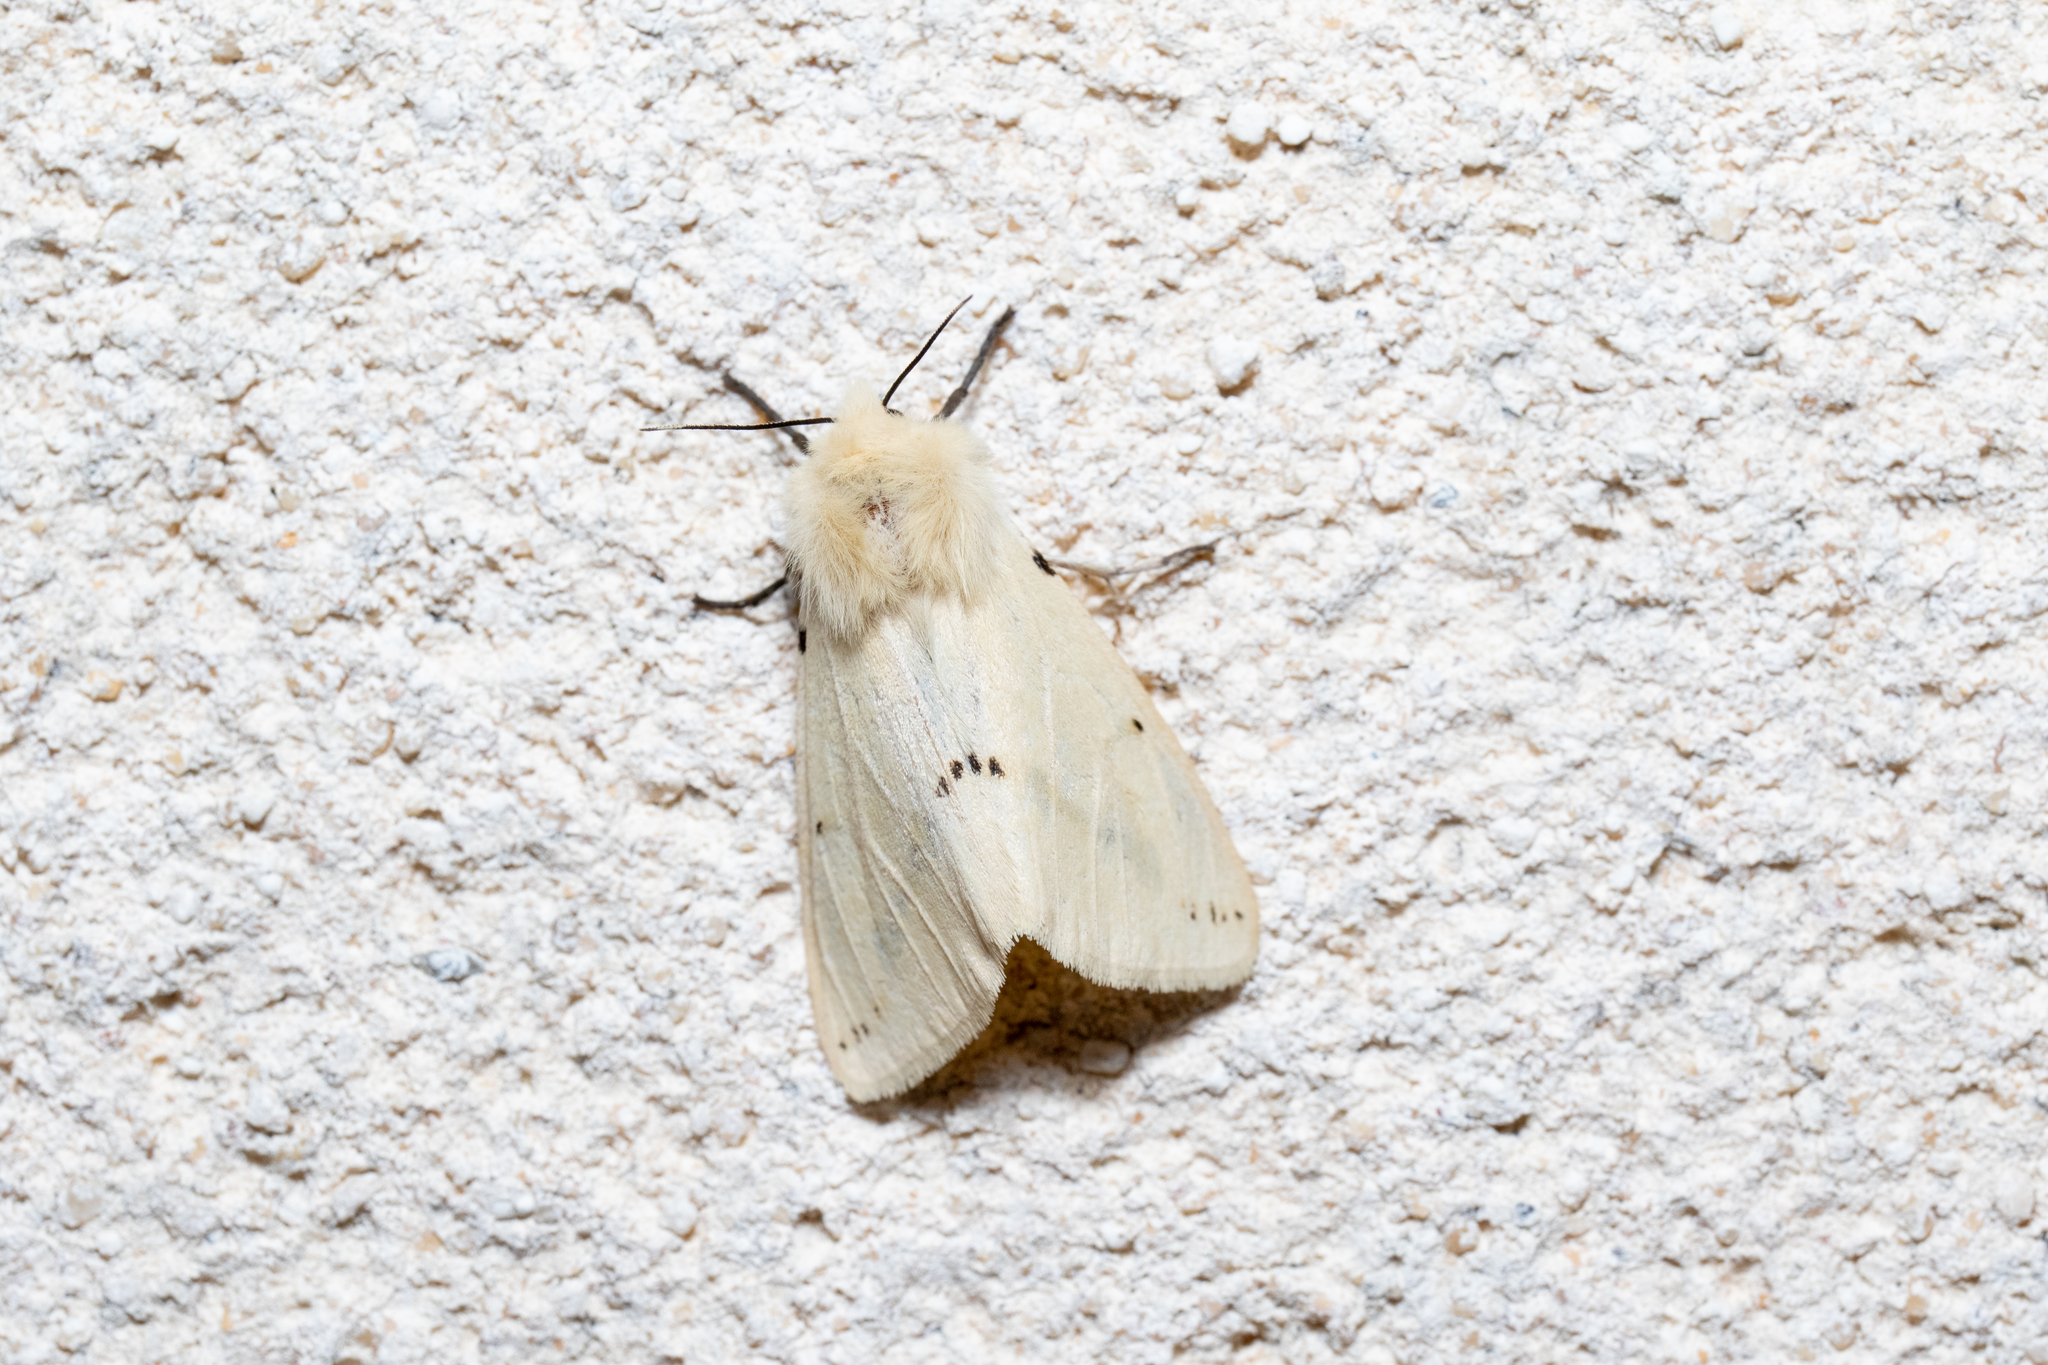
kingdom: Animalia
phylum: Arthropoda
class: Insecta
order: Lepidoptera
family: Erebidae
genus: Spilarctia
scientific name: Spilarctia lutea
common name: Buff ermine
